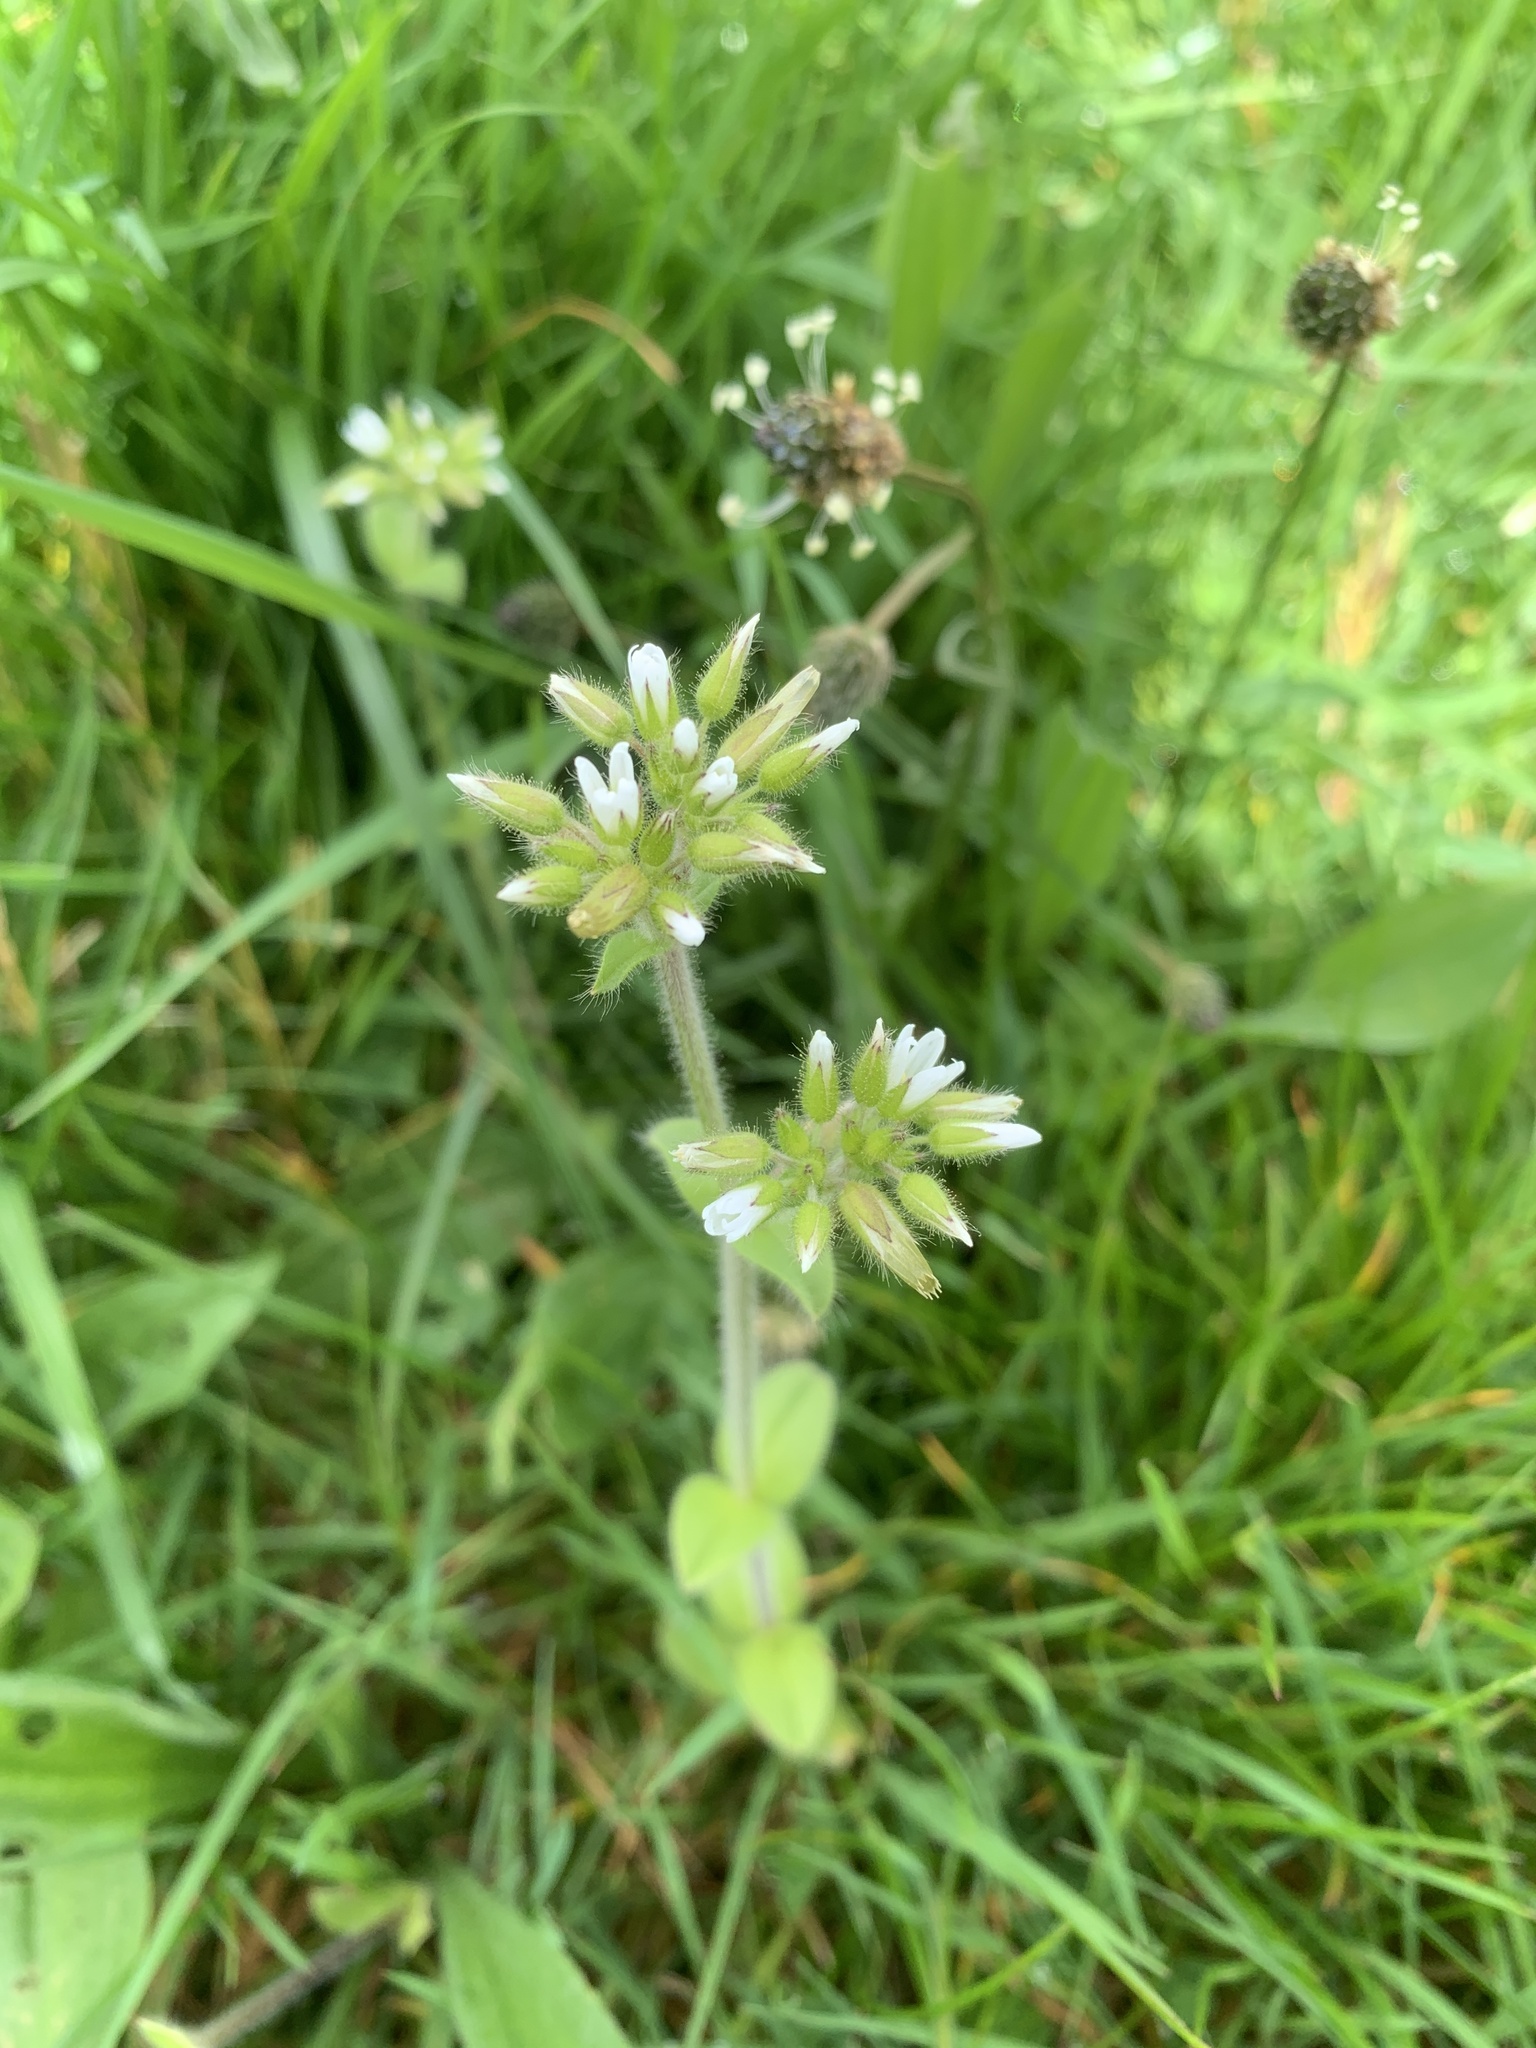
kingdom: Plantae
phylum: Tracheophyta
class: Magnoliopsida
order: Caryophyllales
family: Caryophyllaceae
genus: Cerastium
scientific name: Cerastium glomeratum
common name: Sticky chickweed
